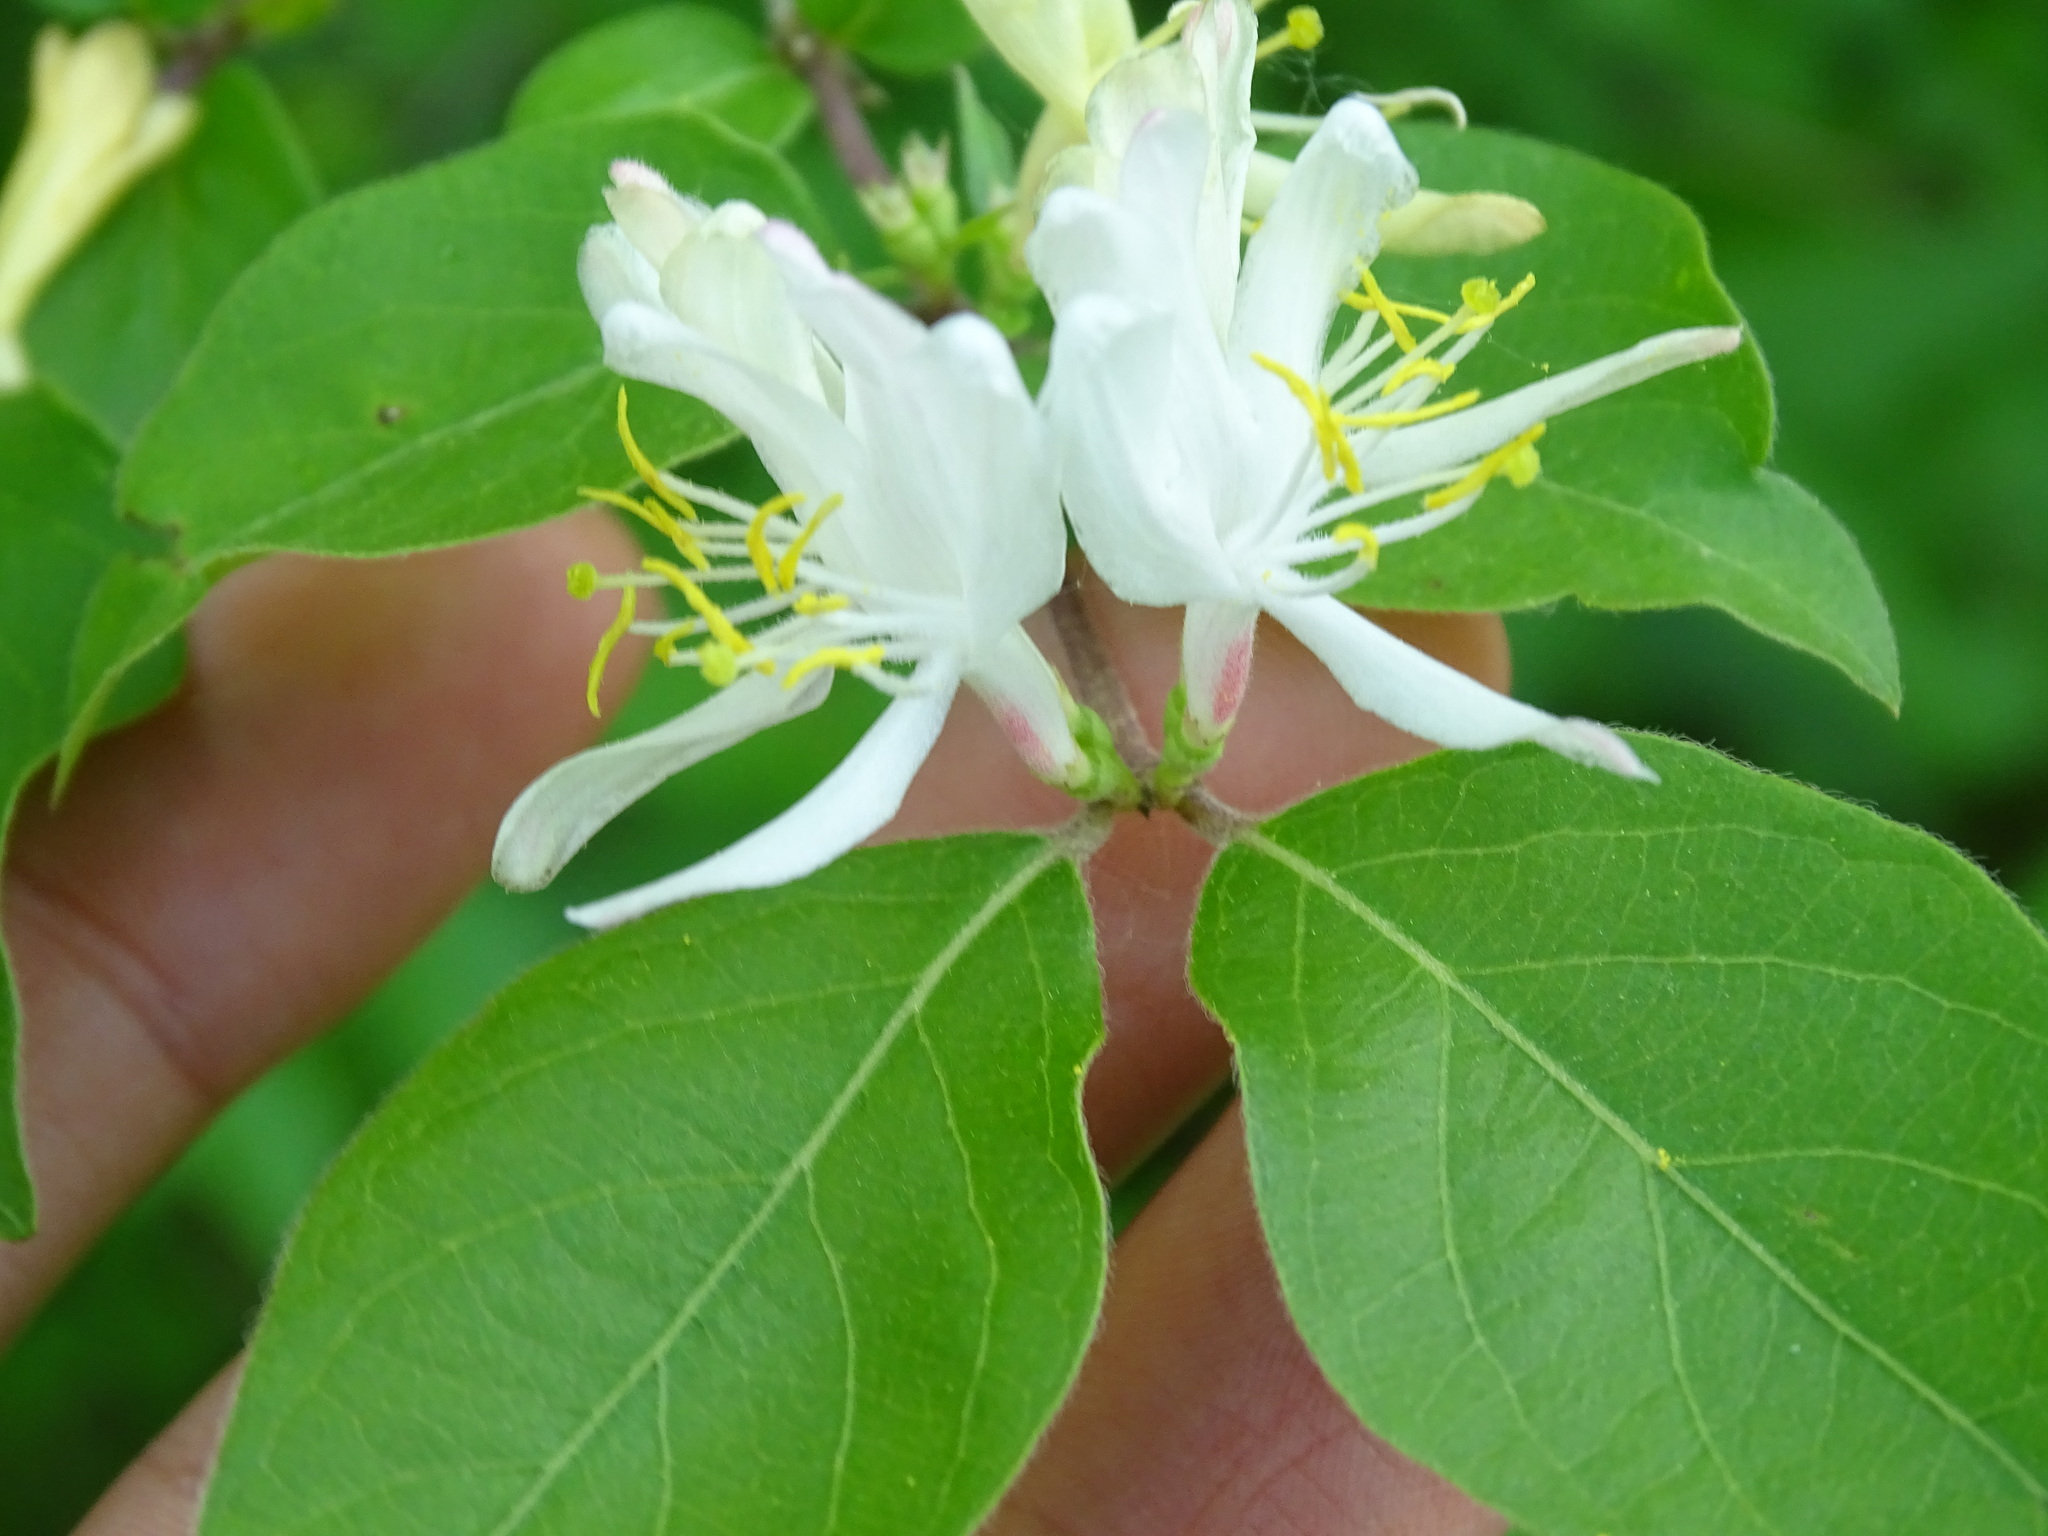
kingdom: Plantae
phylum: Tracheophyta
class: Magnoliopsida
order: Dipsacales
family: Caprifoliaceae
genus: Lonicera
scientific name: Lonicera maackii
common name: Amur honeysuckle
